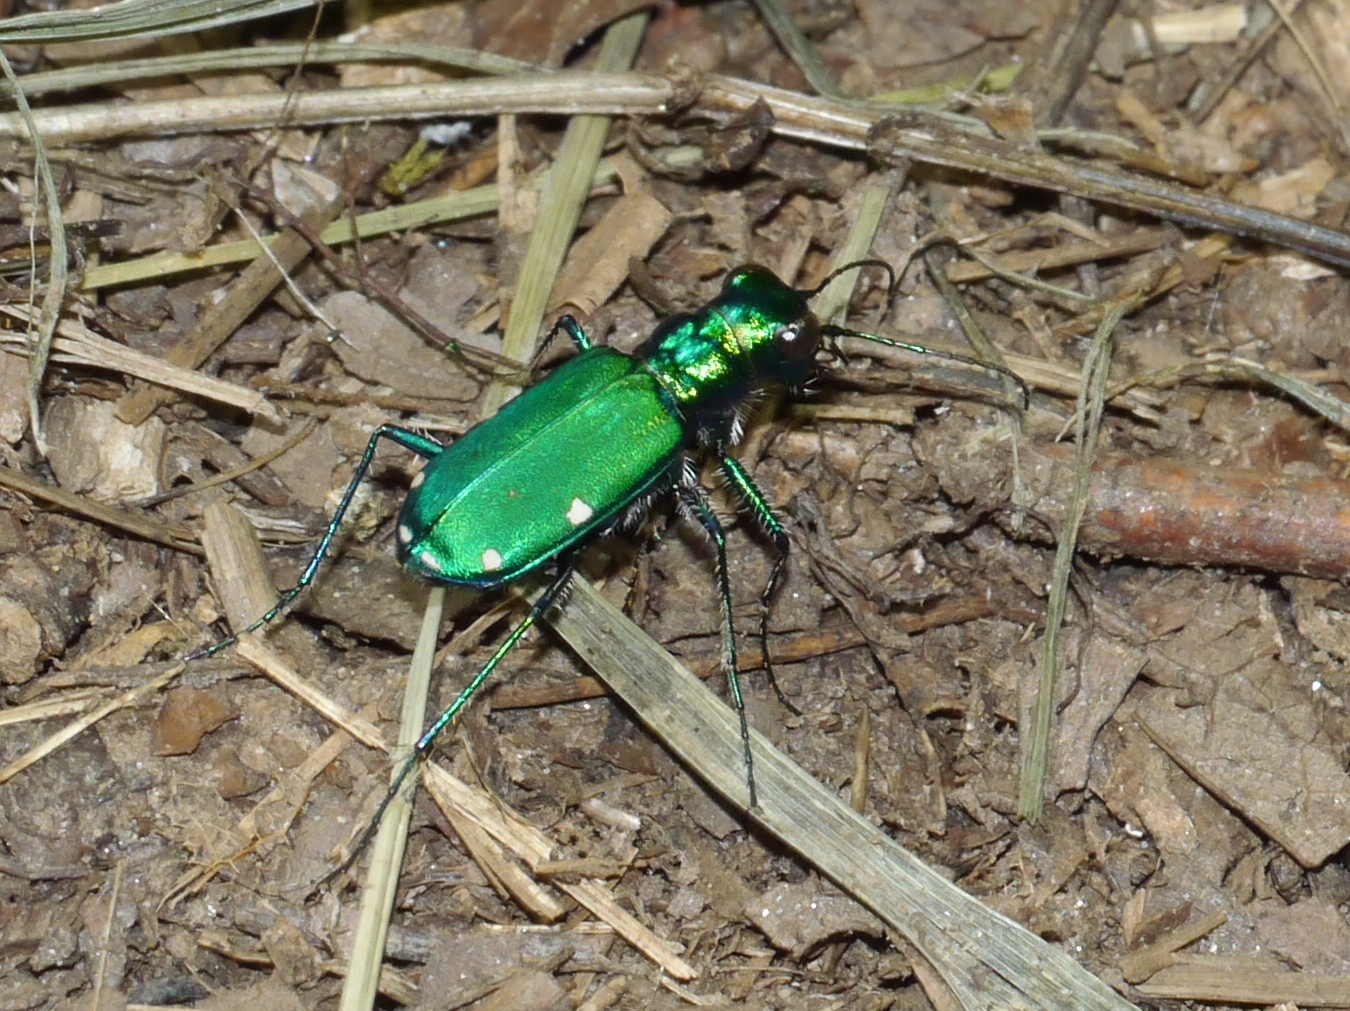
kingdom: Animalia
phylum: Arthropoda
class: Insecta
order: Coleoptera
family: Carabidae
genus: Cicindela
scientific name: Cicindela sexguttata
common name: Six-spotted tiger beetle
